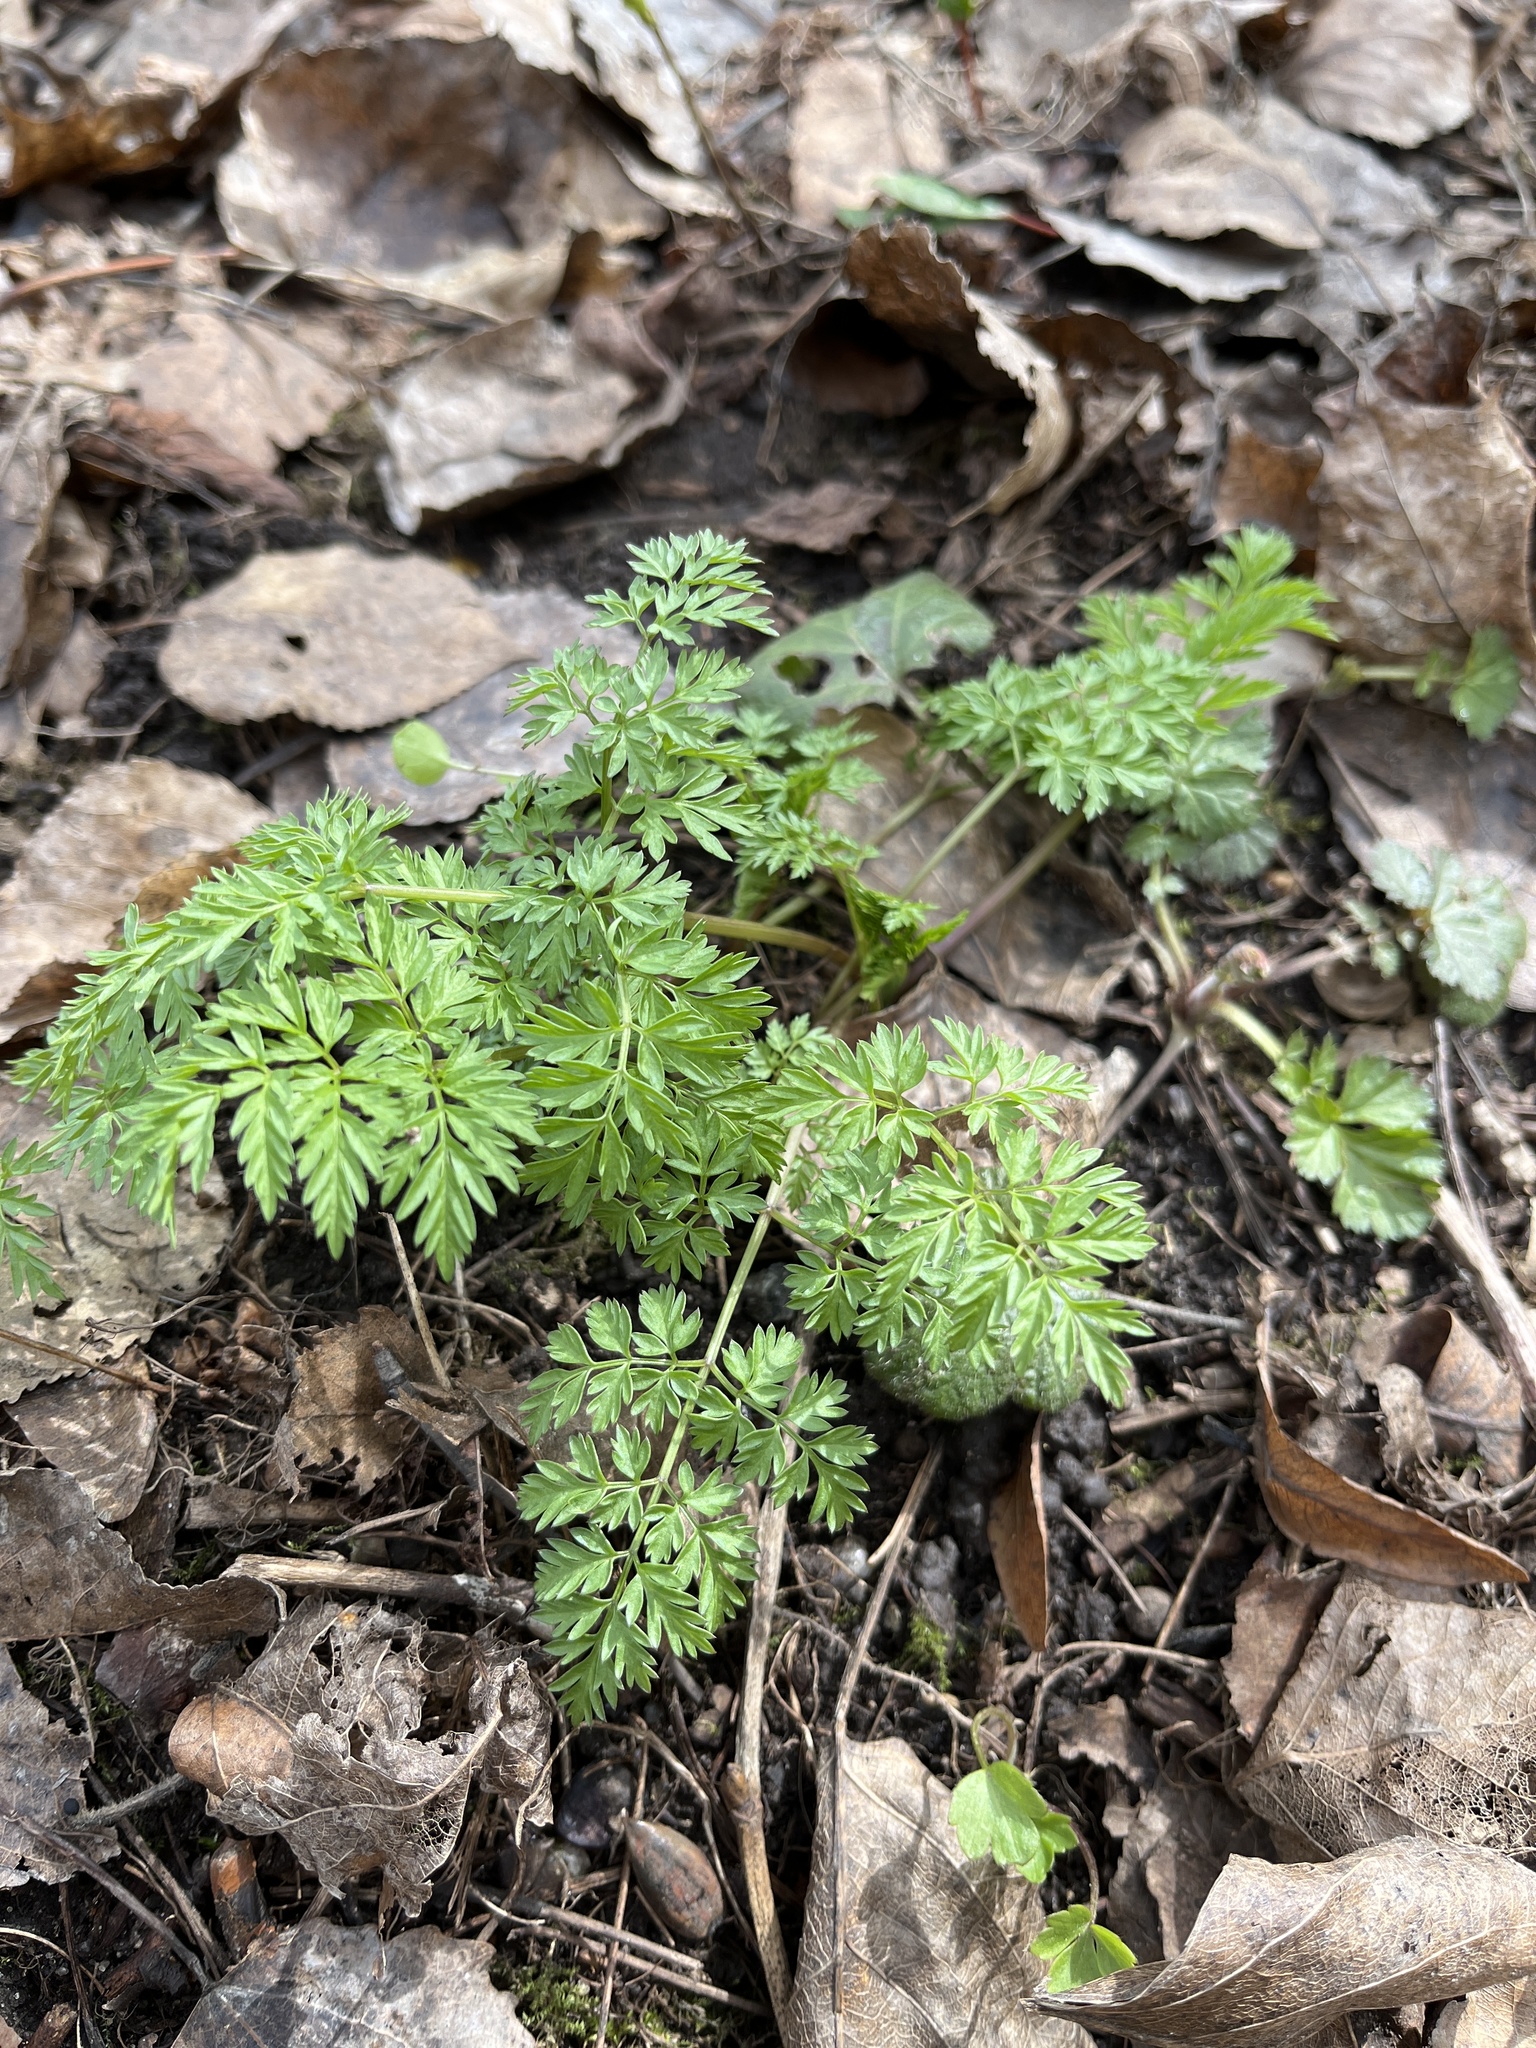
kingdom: Plantae
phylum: Tracheophyta
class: Magnoliopsida
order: Apiales
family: Apiaceae
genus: Anthriscus
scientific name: Anthriscus sylvestris
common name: Cow parsley
